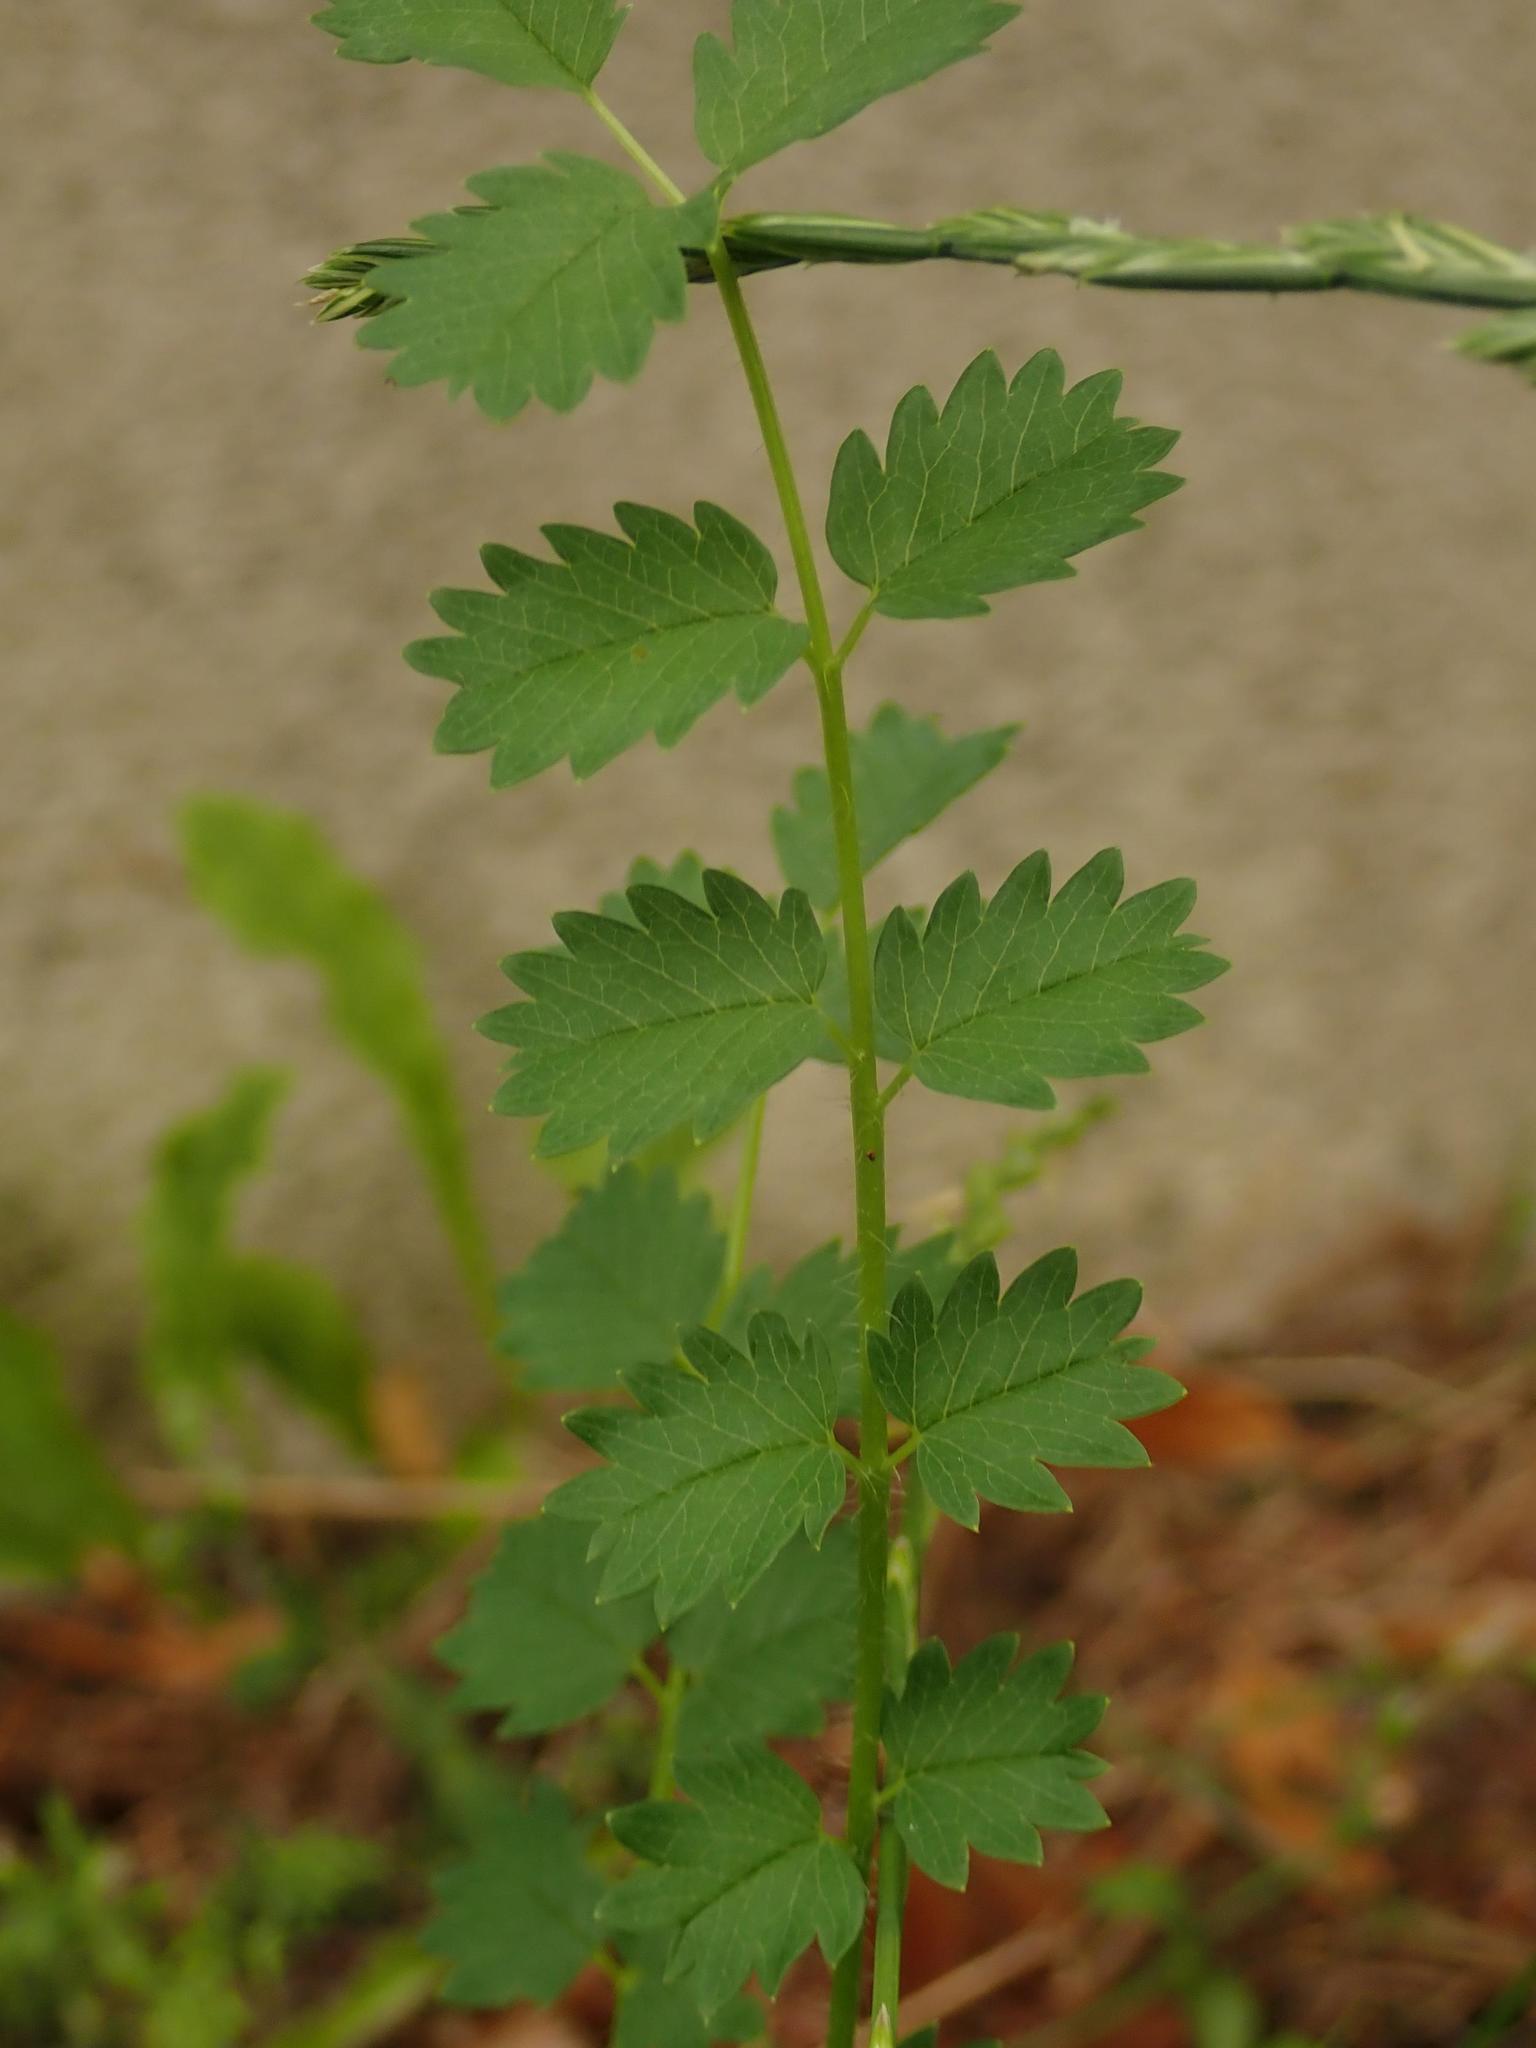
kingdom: Plantae
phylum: Tracheophyta
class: Magnoliopsida
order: Rosales
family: Rosaceae
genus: Poterium
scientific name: Poterium sanguisorba
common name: Salad burnet
